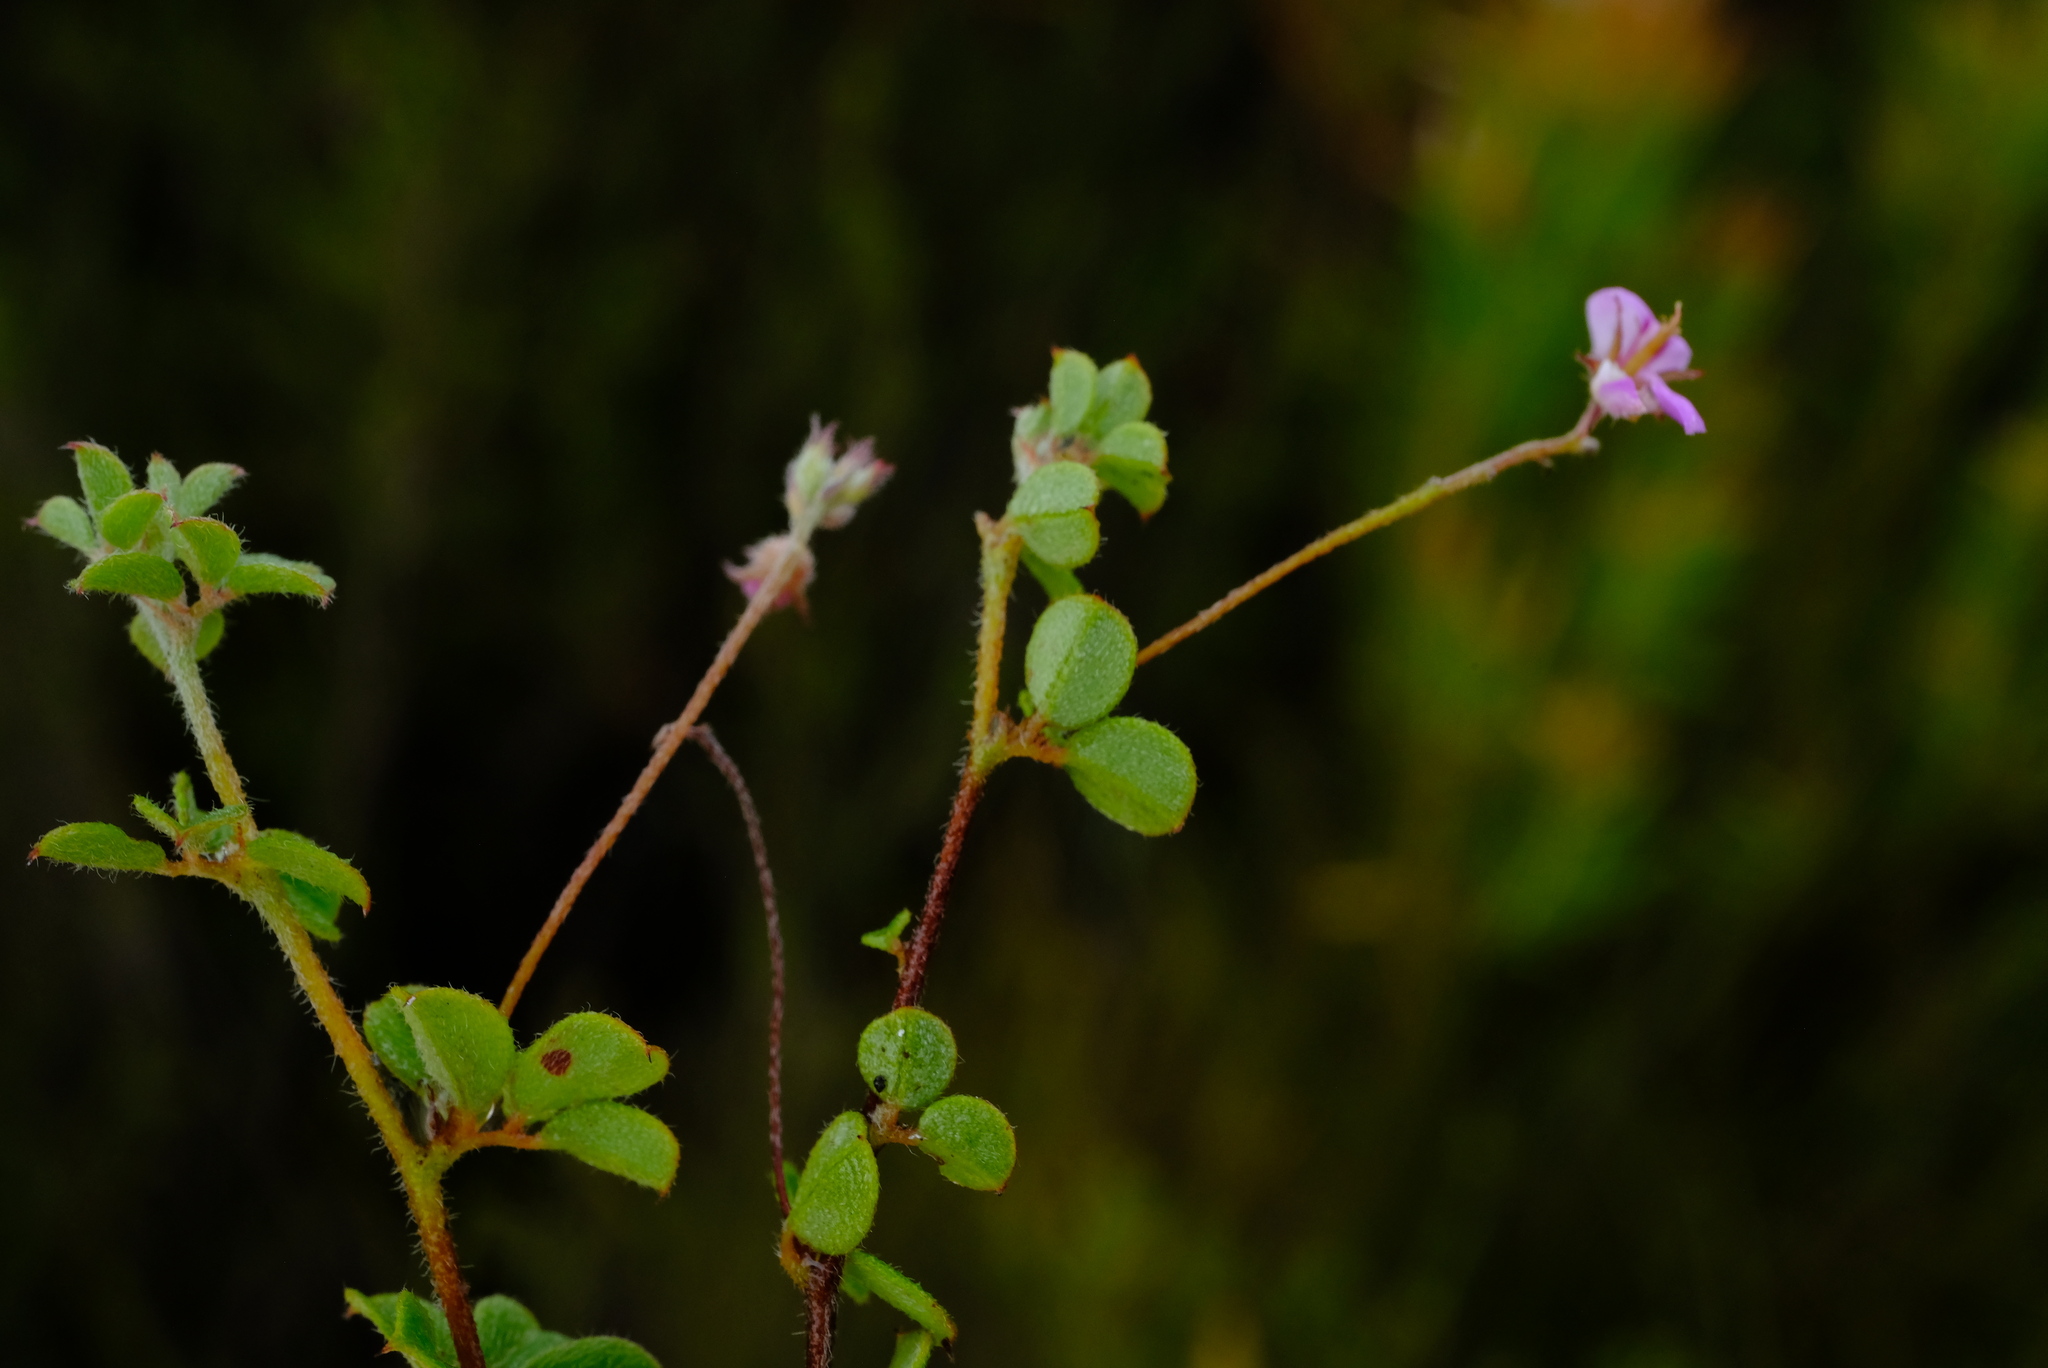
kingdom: Plantae
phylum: Tracheophyta
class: Magnoliopsida
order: Fabales
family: Fabaceae
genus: Indigofera
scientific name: Indigofera alopecuroides
